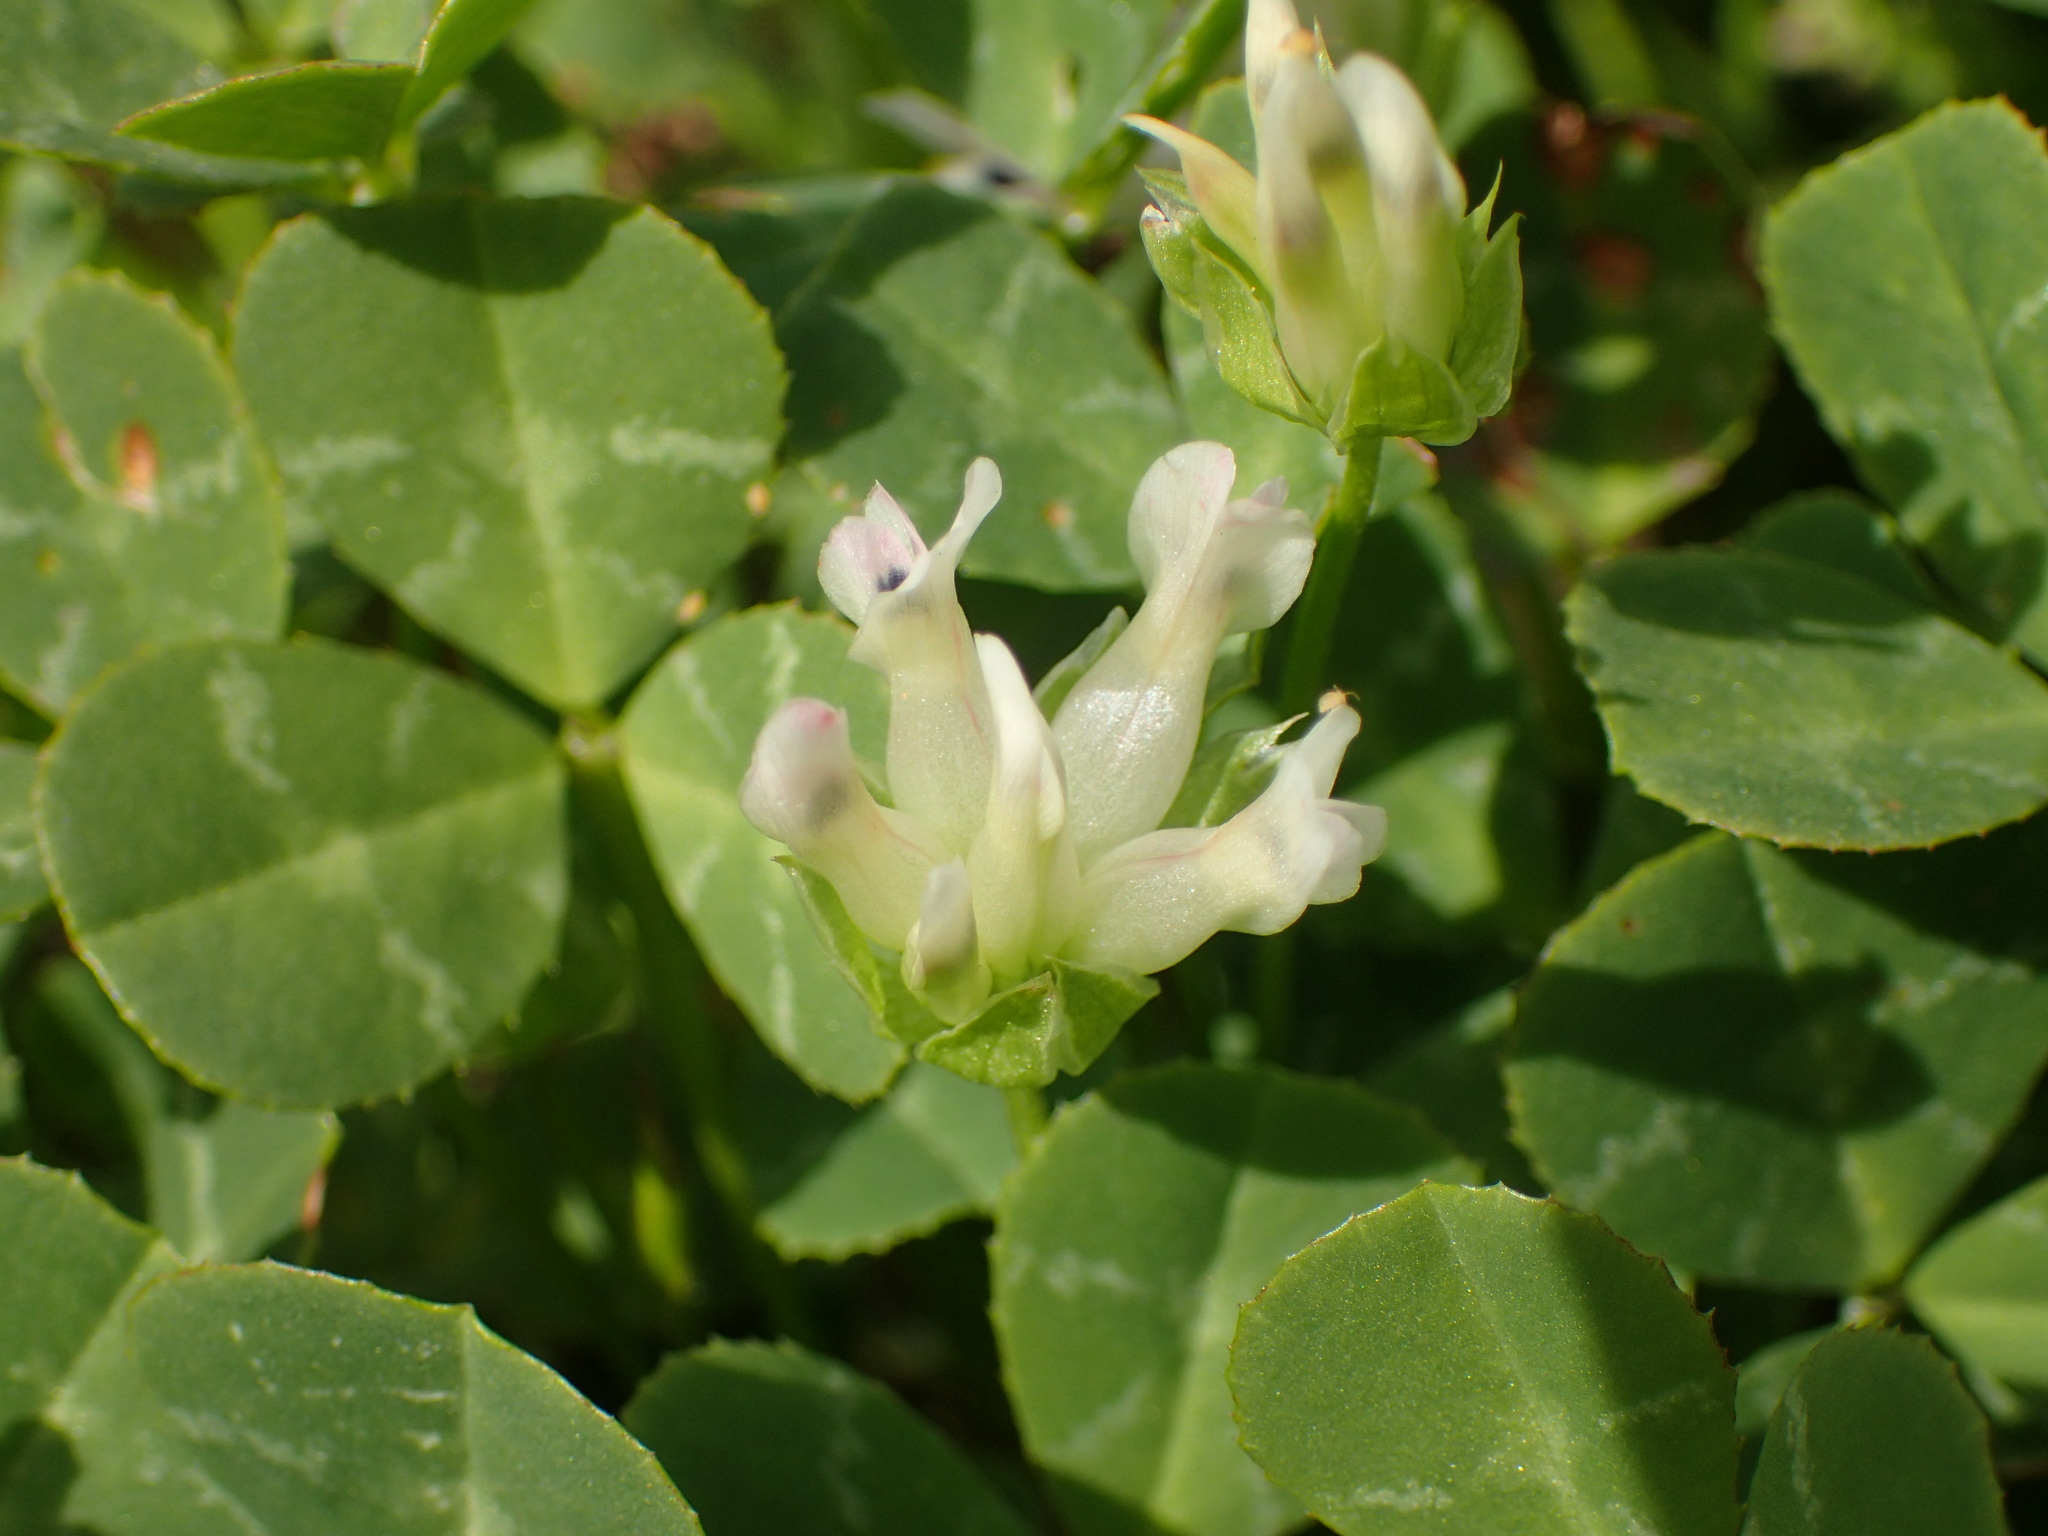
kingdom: Plantae
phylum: Tracheophyta
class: Magnoliopsida
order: Fabales
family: Fabaceae
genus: Trifolium
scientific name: Trifolium fucatum
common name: Puff clover
